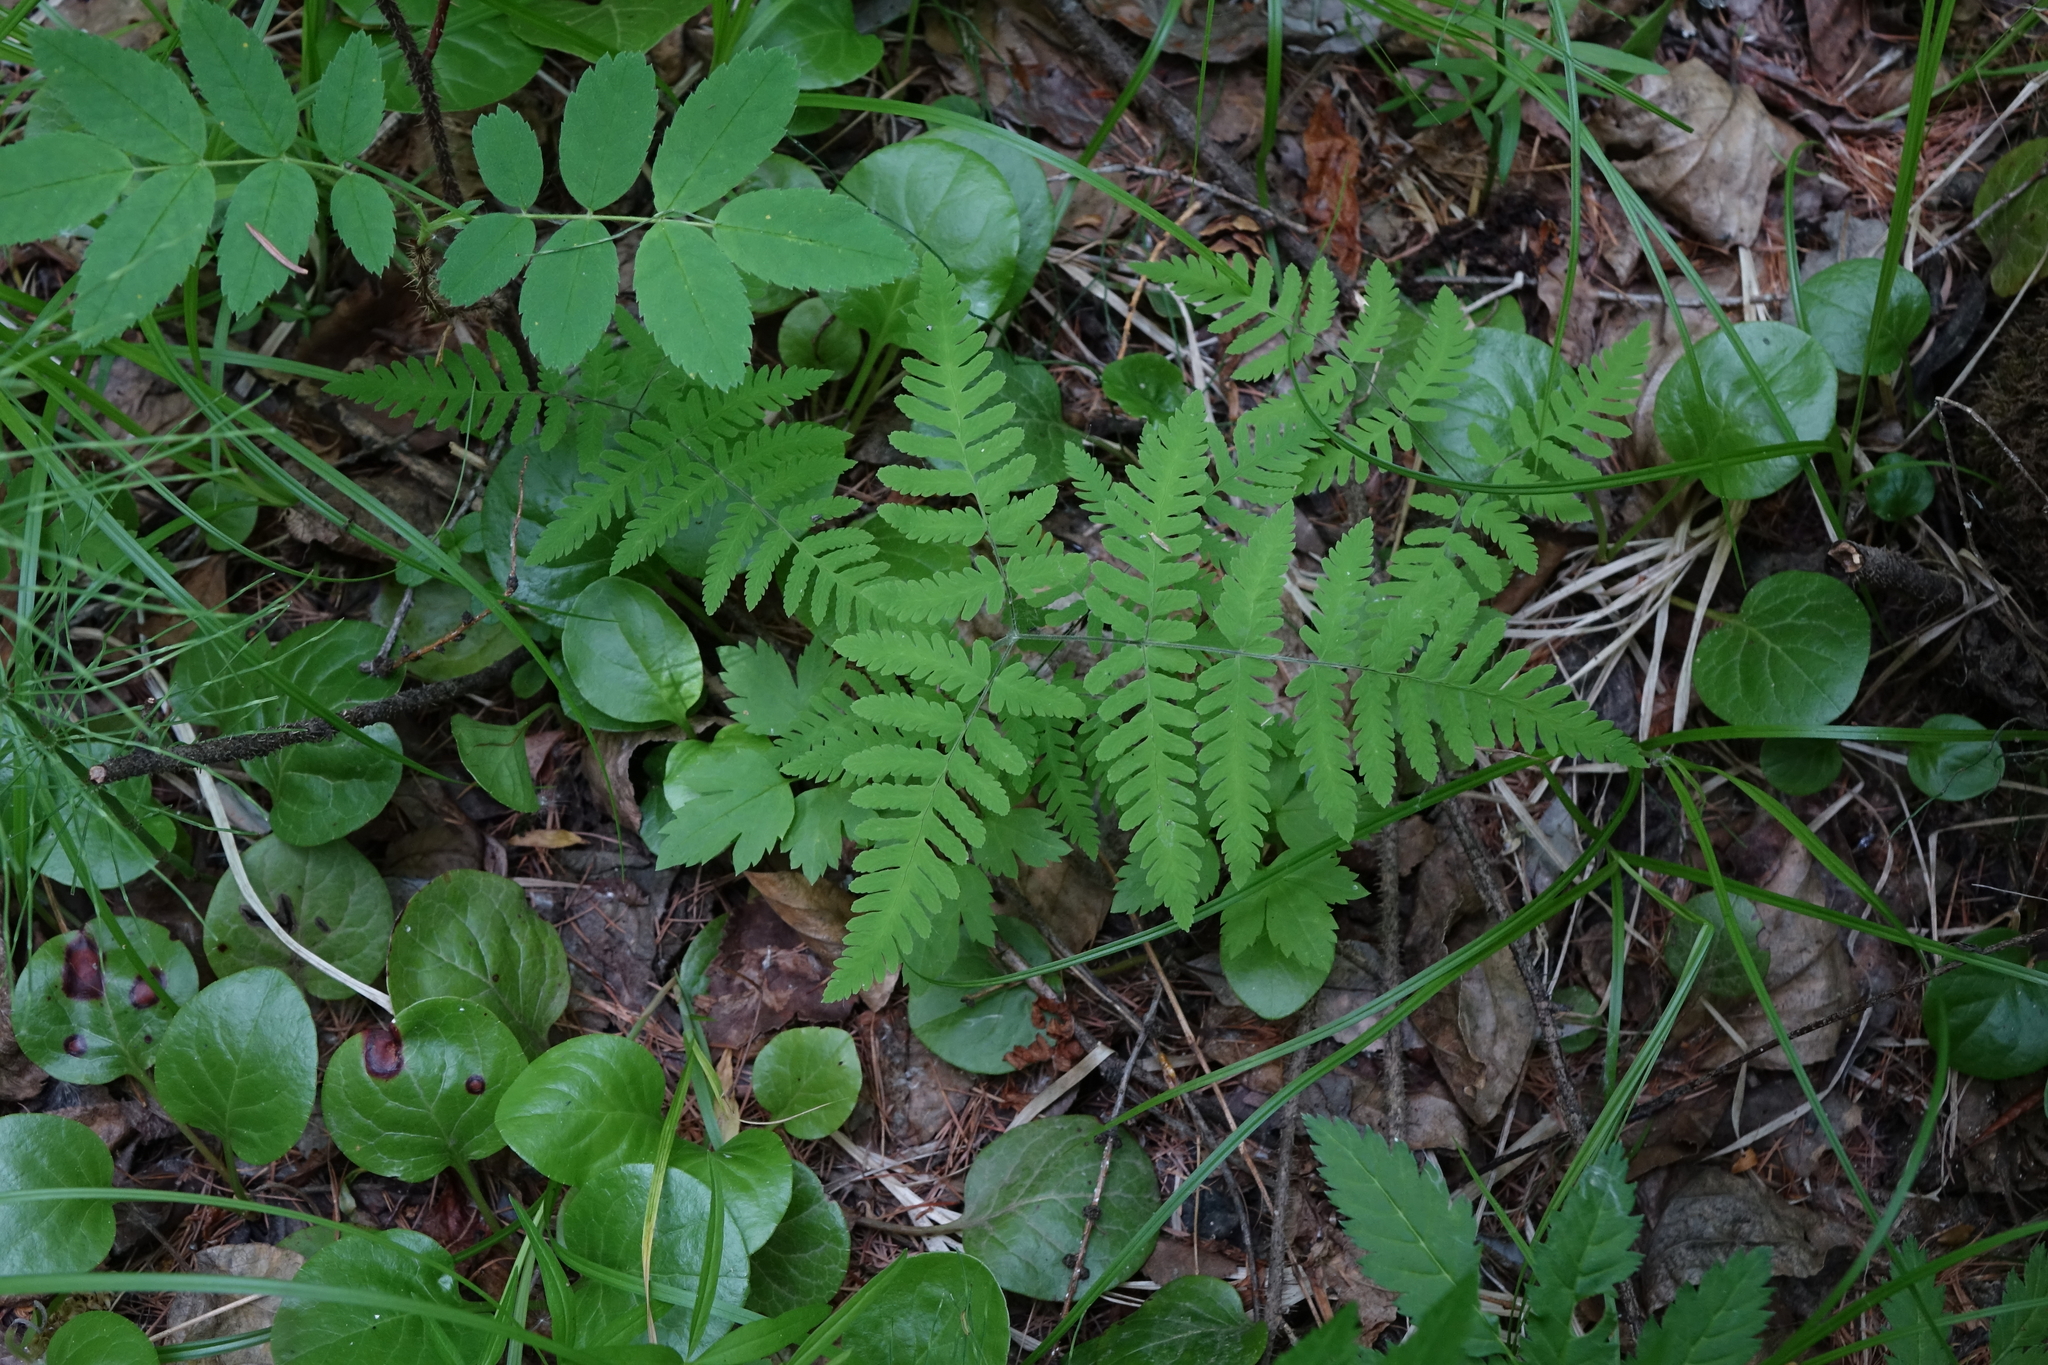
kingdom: Plantae
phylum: Tracheophyta
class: Polypodiopsida
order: Polypodiales
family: Cystopteridaceae
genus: Gymnocarpium
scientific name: Gymnocarpium continentale
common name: Asian oak fern
